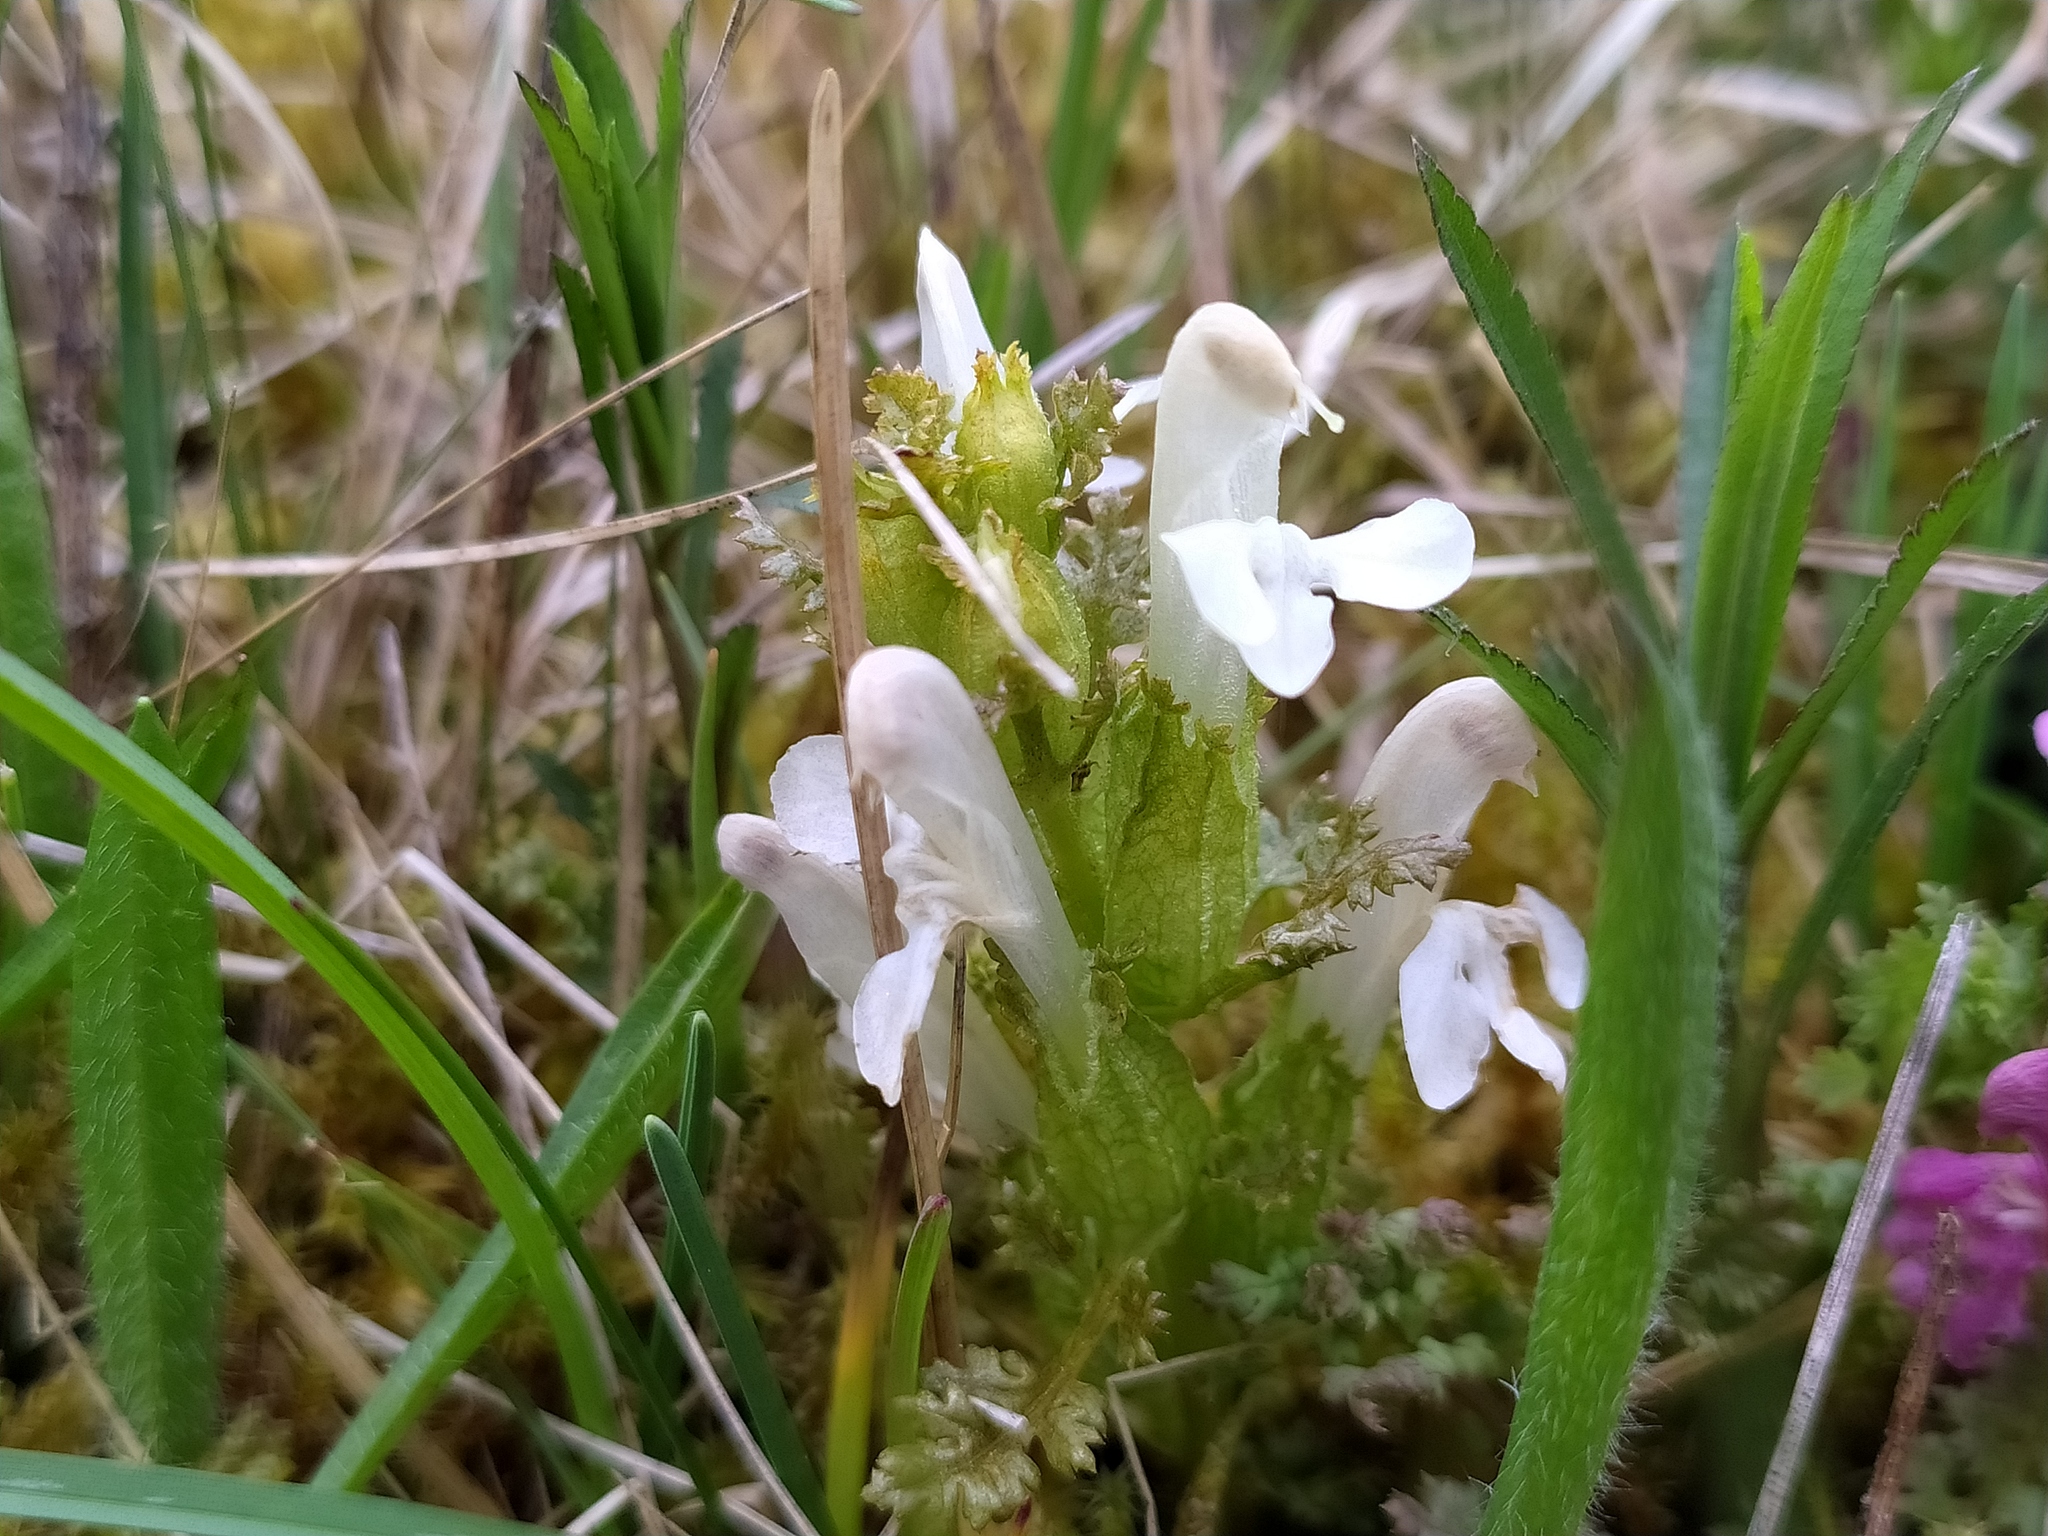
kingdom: Plantae
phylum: Tracheophyta
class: Magnoliopsida
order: Lamiales
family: Orobanchaceae
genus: Pedicularis
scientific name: Pedicularis sylvatica
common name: Lousewort
